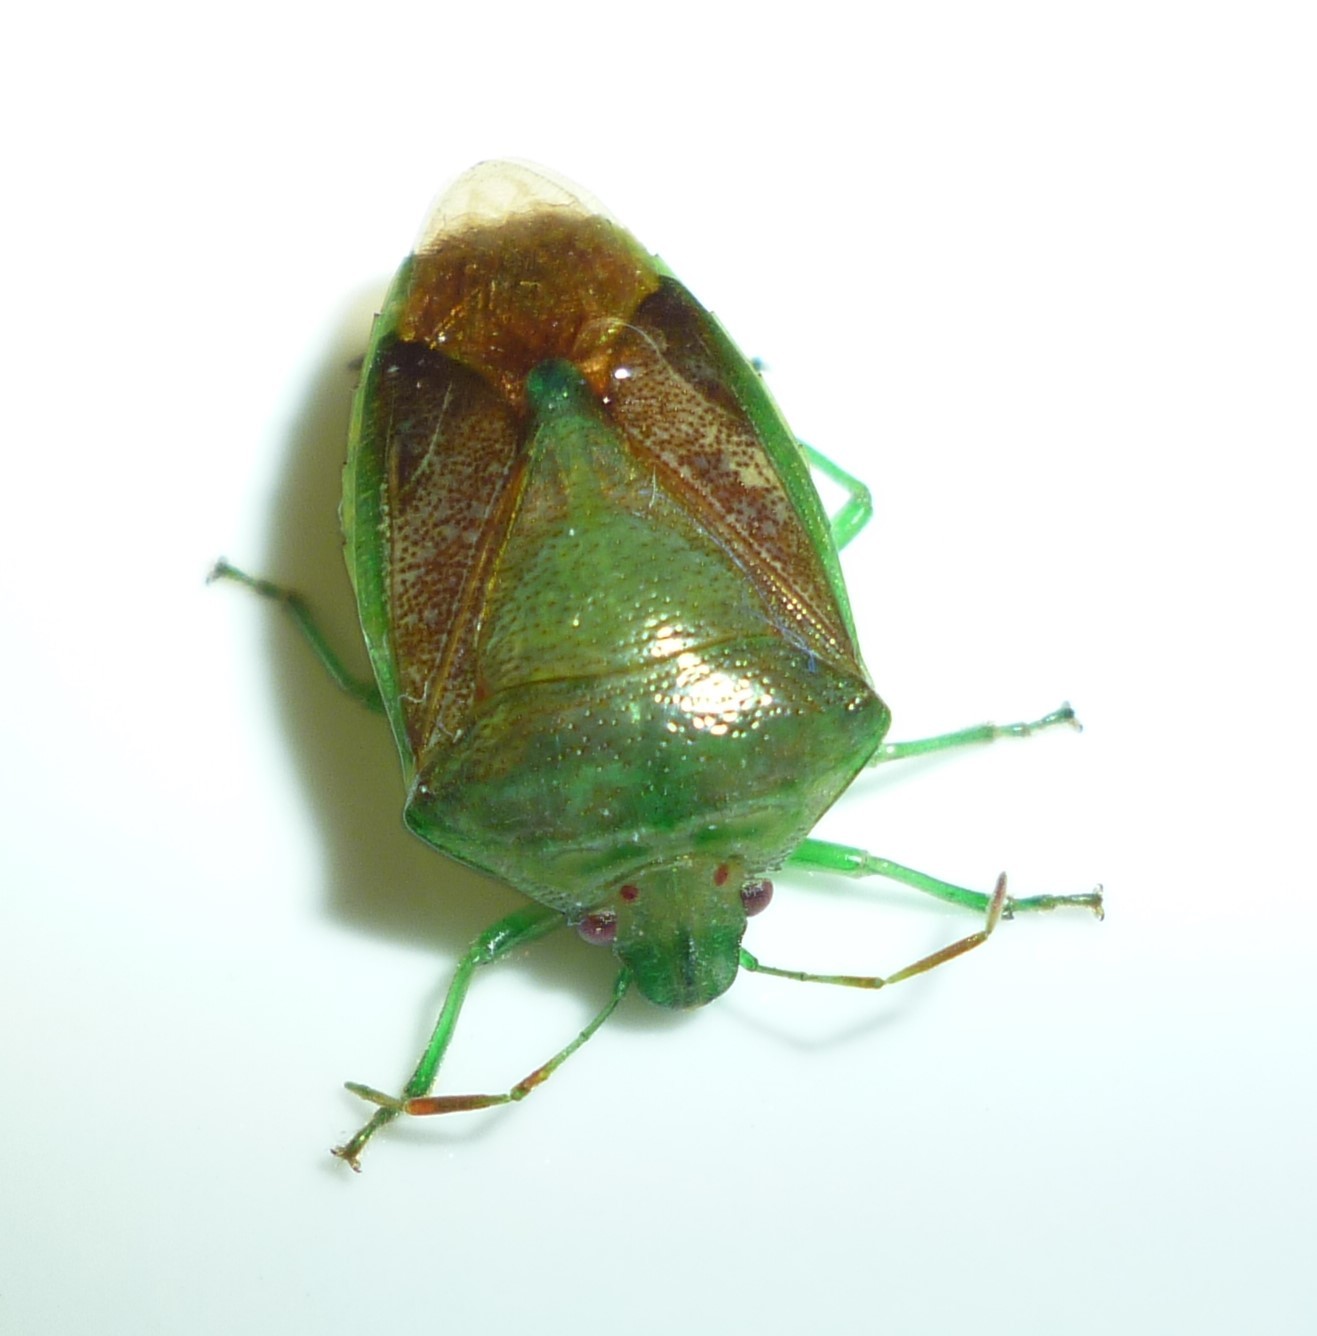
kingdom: Animalia
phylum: Arthropoda
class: Insecta
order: Hemiptera
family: Pentatomidae
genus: Banasa
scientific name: Banasa calva
